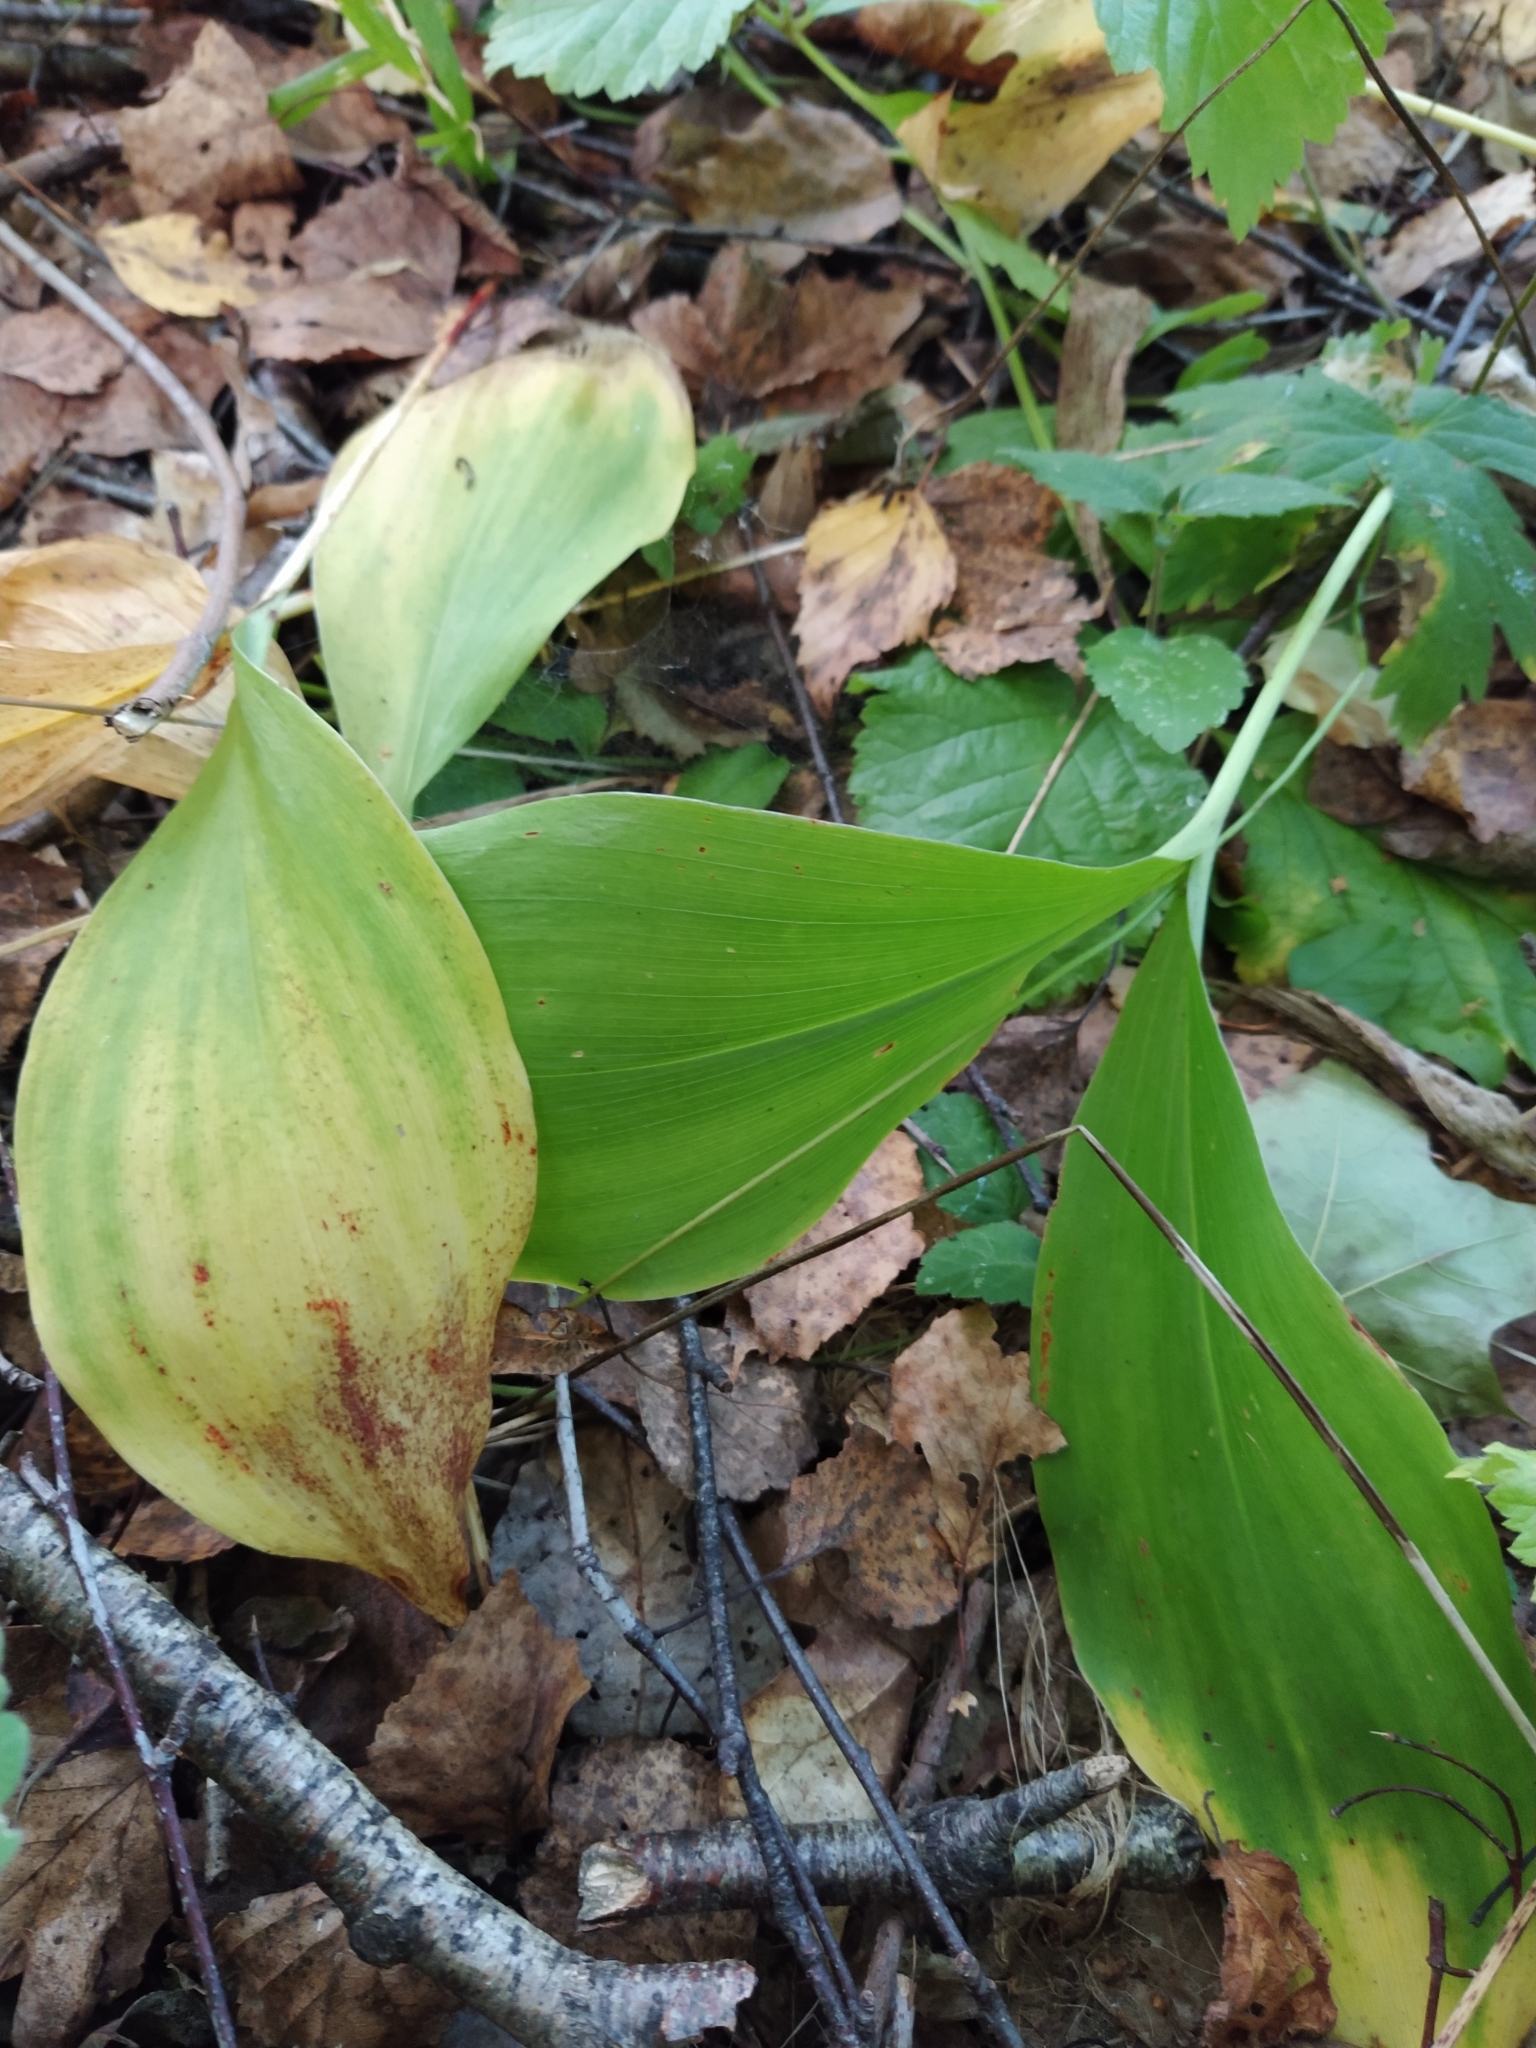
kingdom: Plantae
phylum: Tracheophyta
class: Liliopsida
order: Asparagales
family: Asparagaceae
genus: Convallaria
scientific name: Convallaria majalis
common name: Lily-of-the-valley
